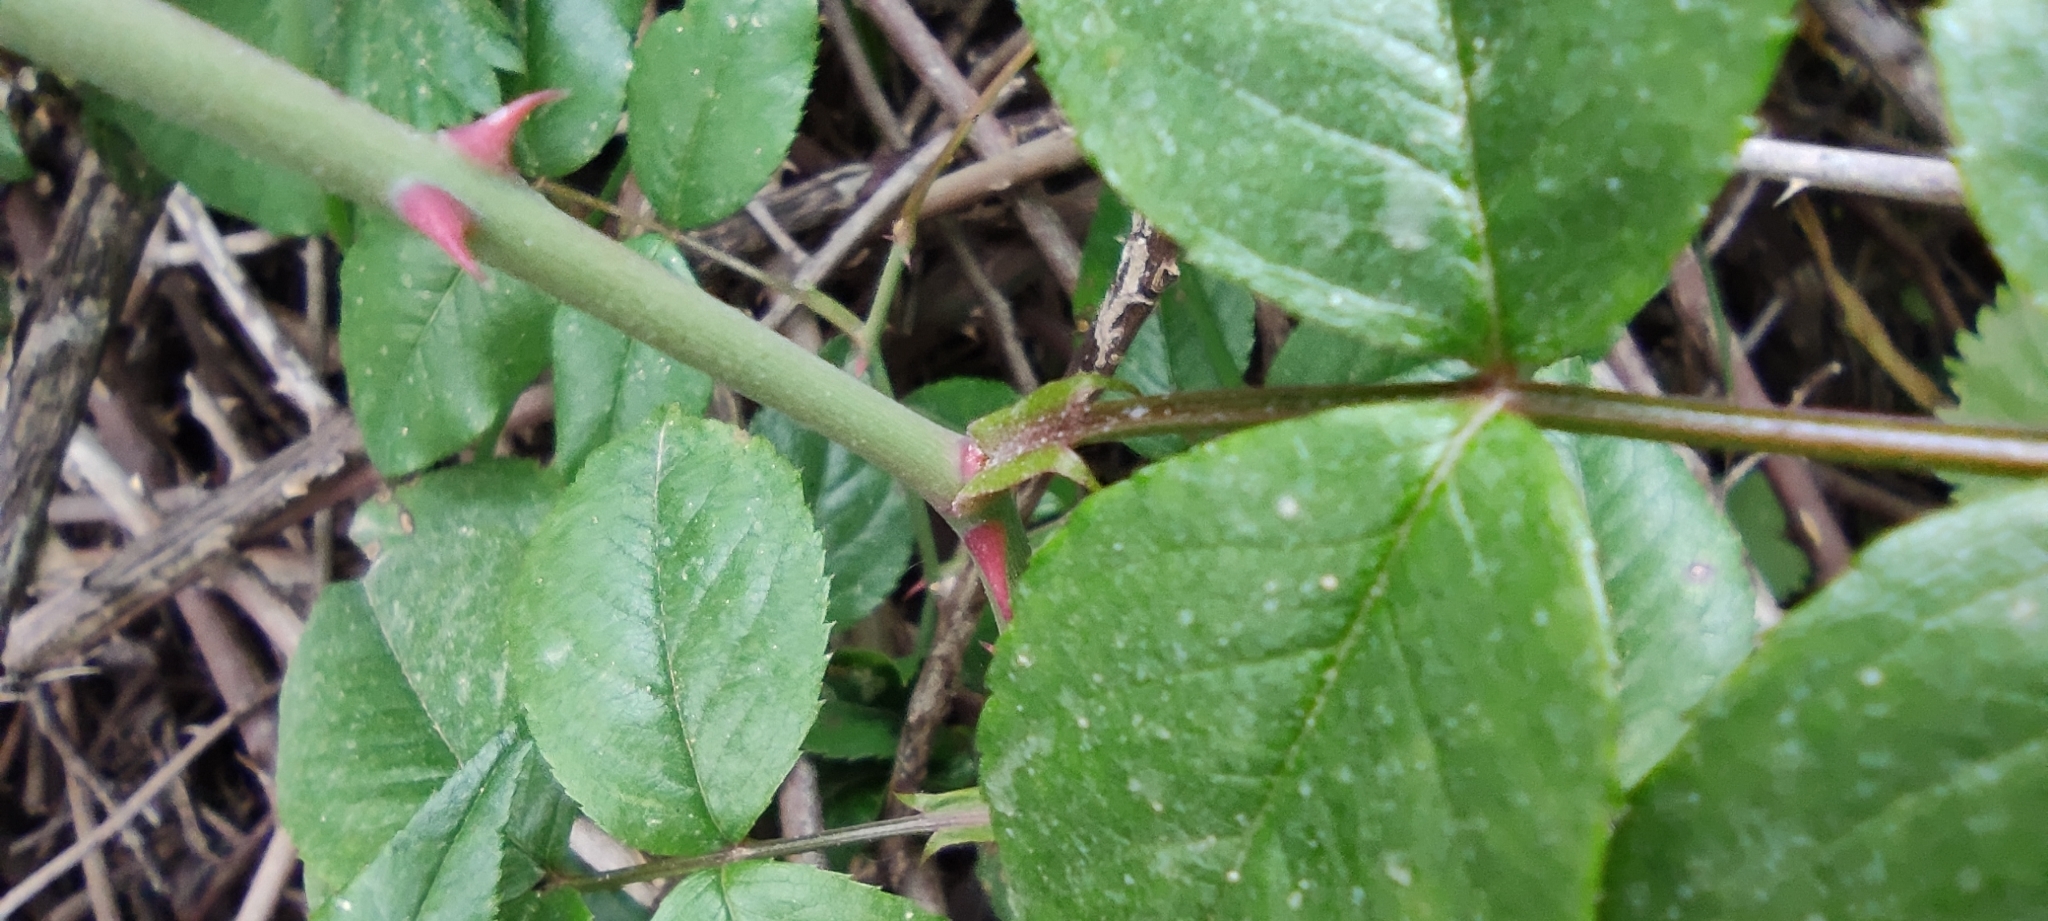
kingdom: Plantae
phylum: Tracheophyta
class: Magnoliopsida
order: Rosales
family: Rosaceae
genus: Rosa
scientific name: Rosa sempervirens
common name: Evergreen rose
